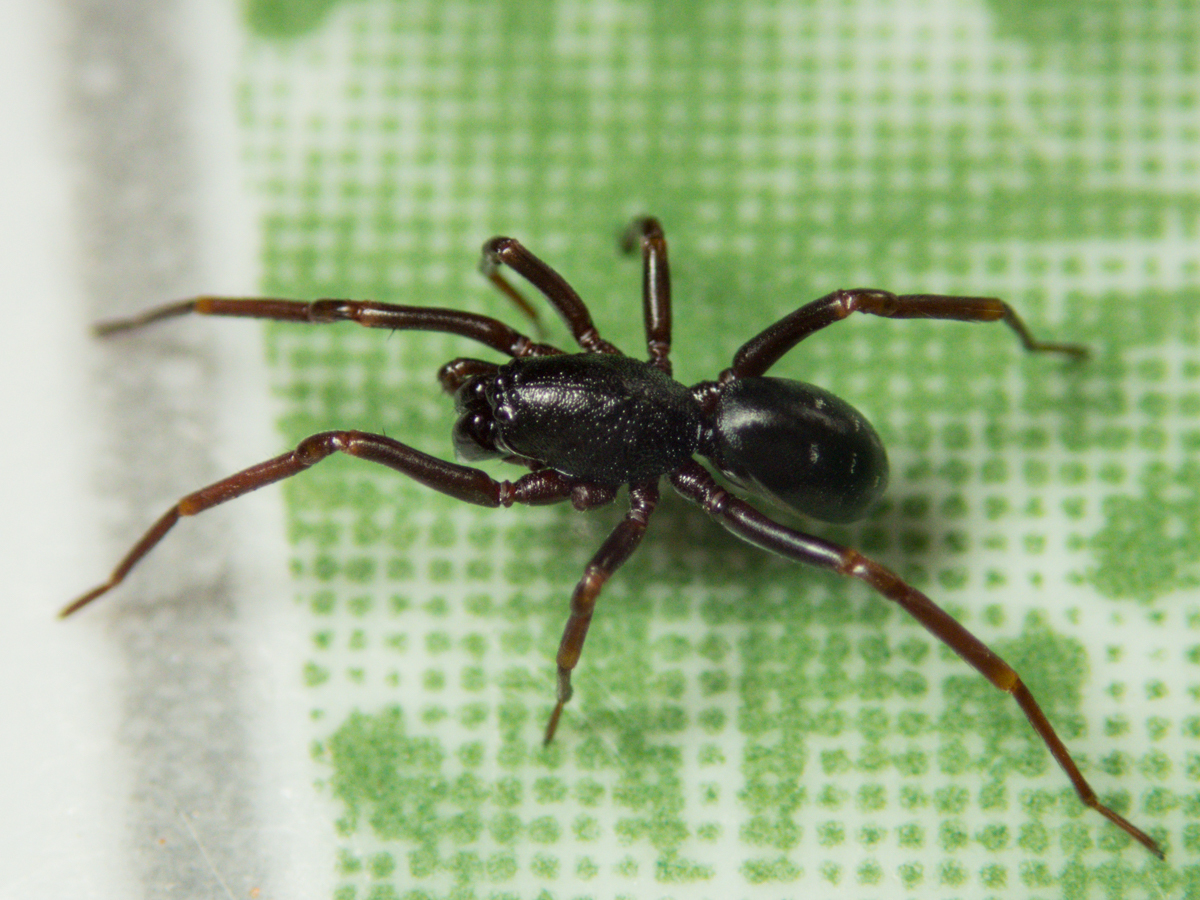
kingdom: Animalia
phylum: Arthropoda
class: Arachnida
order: Araneae
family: Liocranidae
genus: Oedignatha
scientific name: Oedignatha scrobiculata
